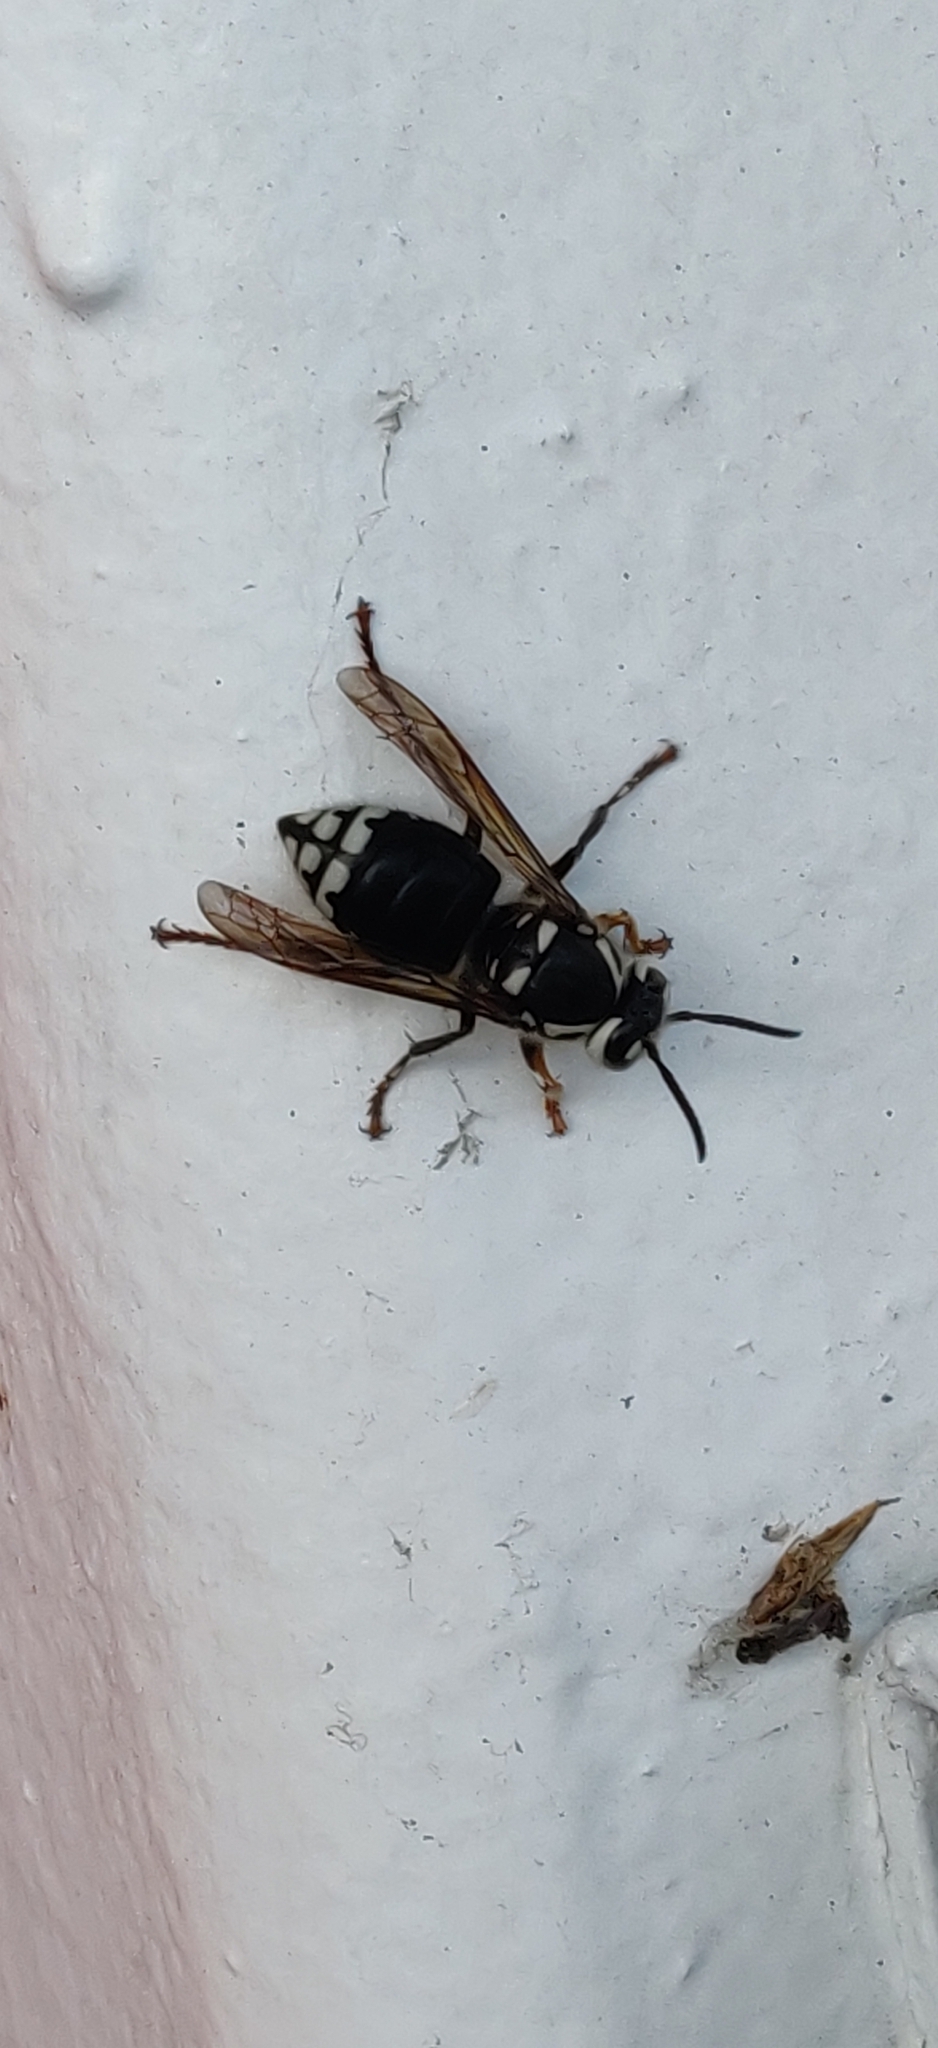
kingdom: Animalia
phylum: Arthropoda
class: Insecta
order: Hymenoptera
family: Vespidae
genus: Dolichovespula
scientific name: Dolichovespula maculata
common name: Bald-faced hornet
